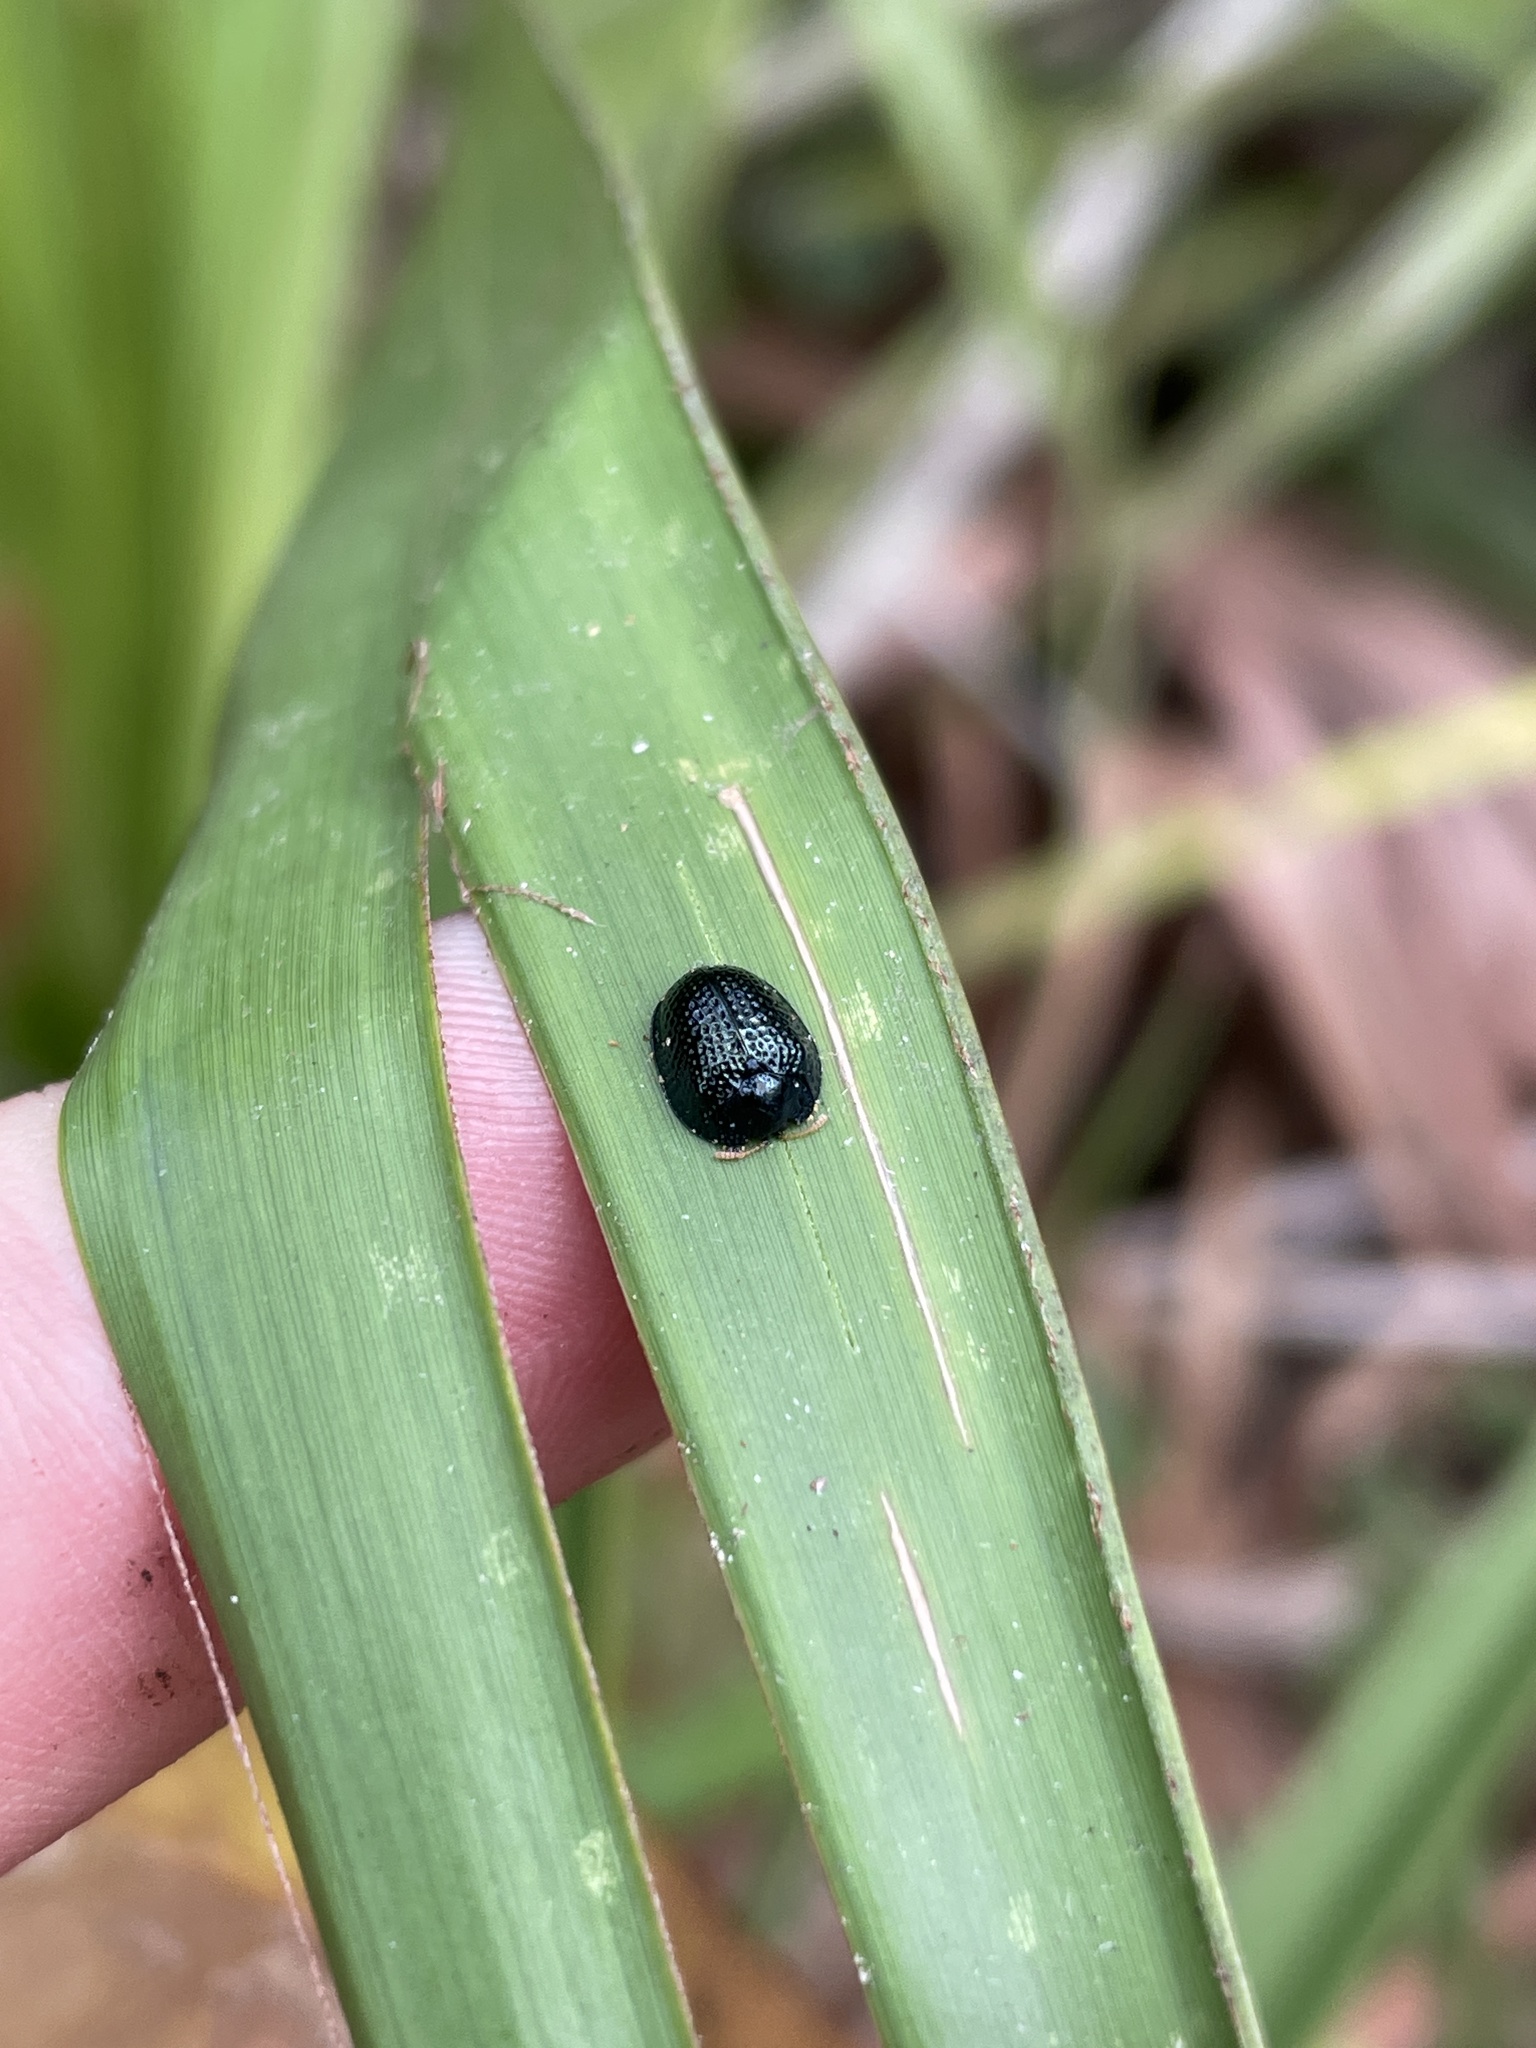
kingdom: Animalia
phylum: Arthropoda
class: Insecta
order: Coleoptera
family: Chrysomelidae
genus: Hemisphaerota
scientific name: Hemisphaerota cyanea
